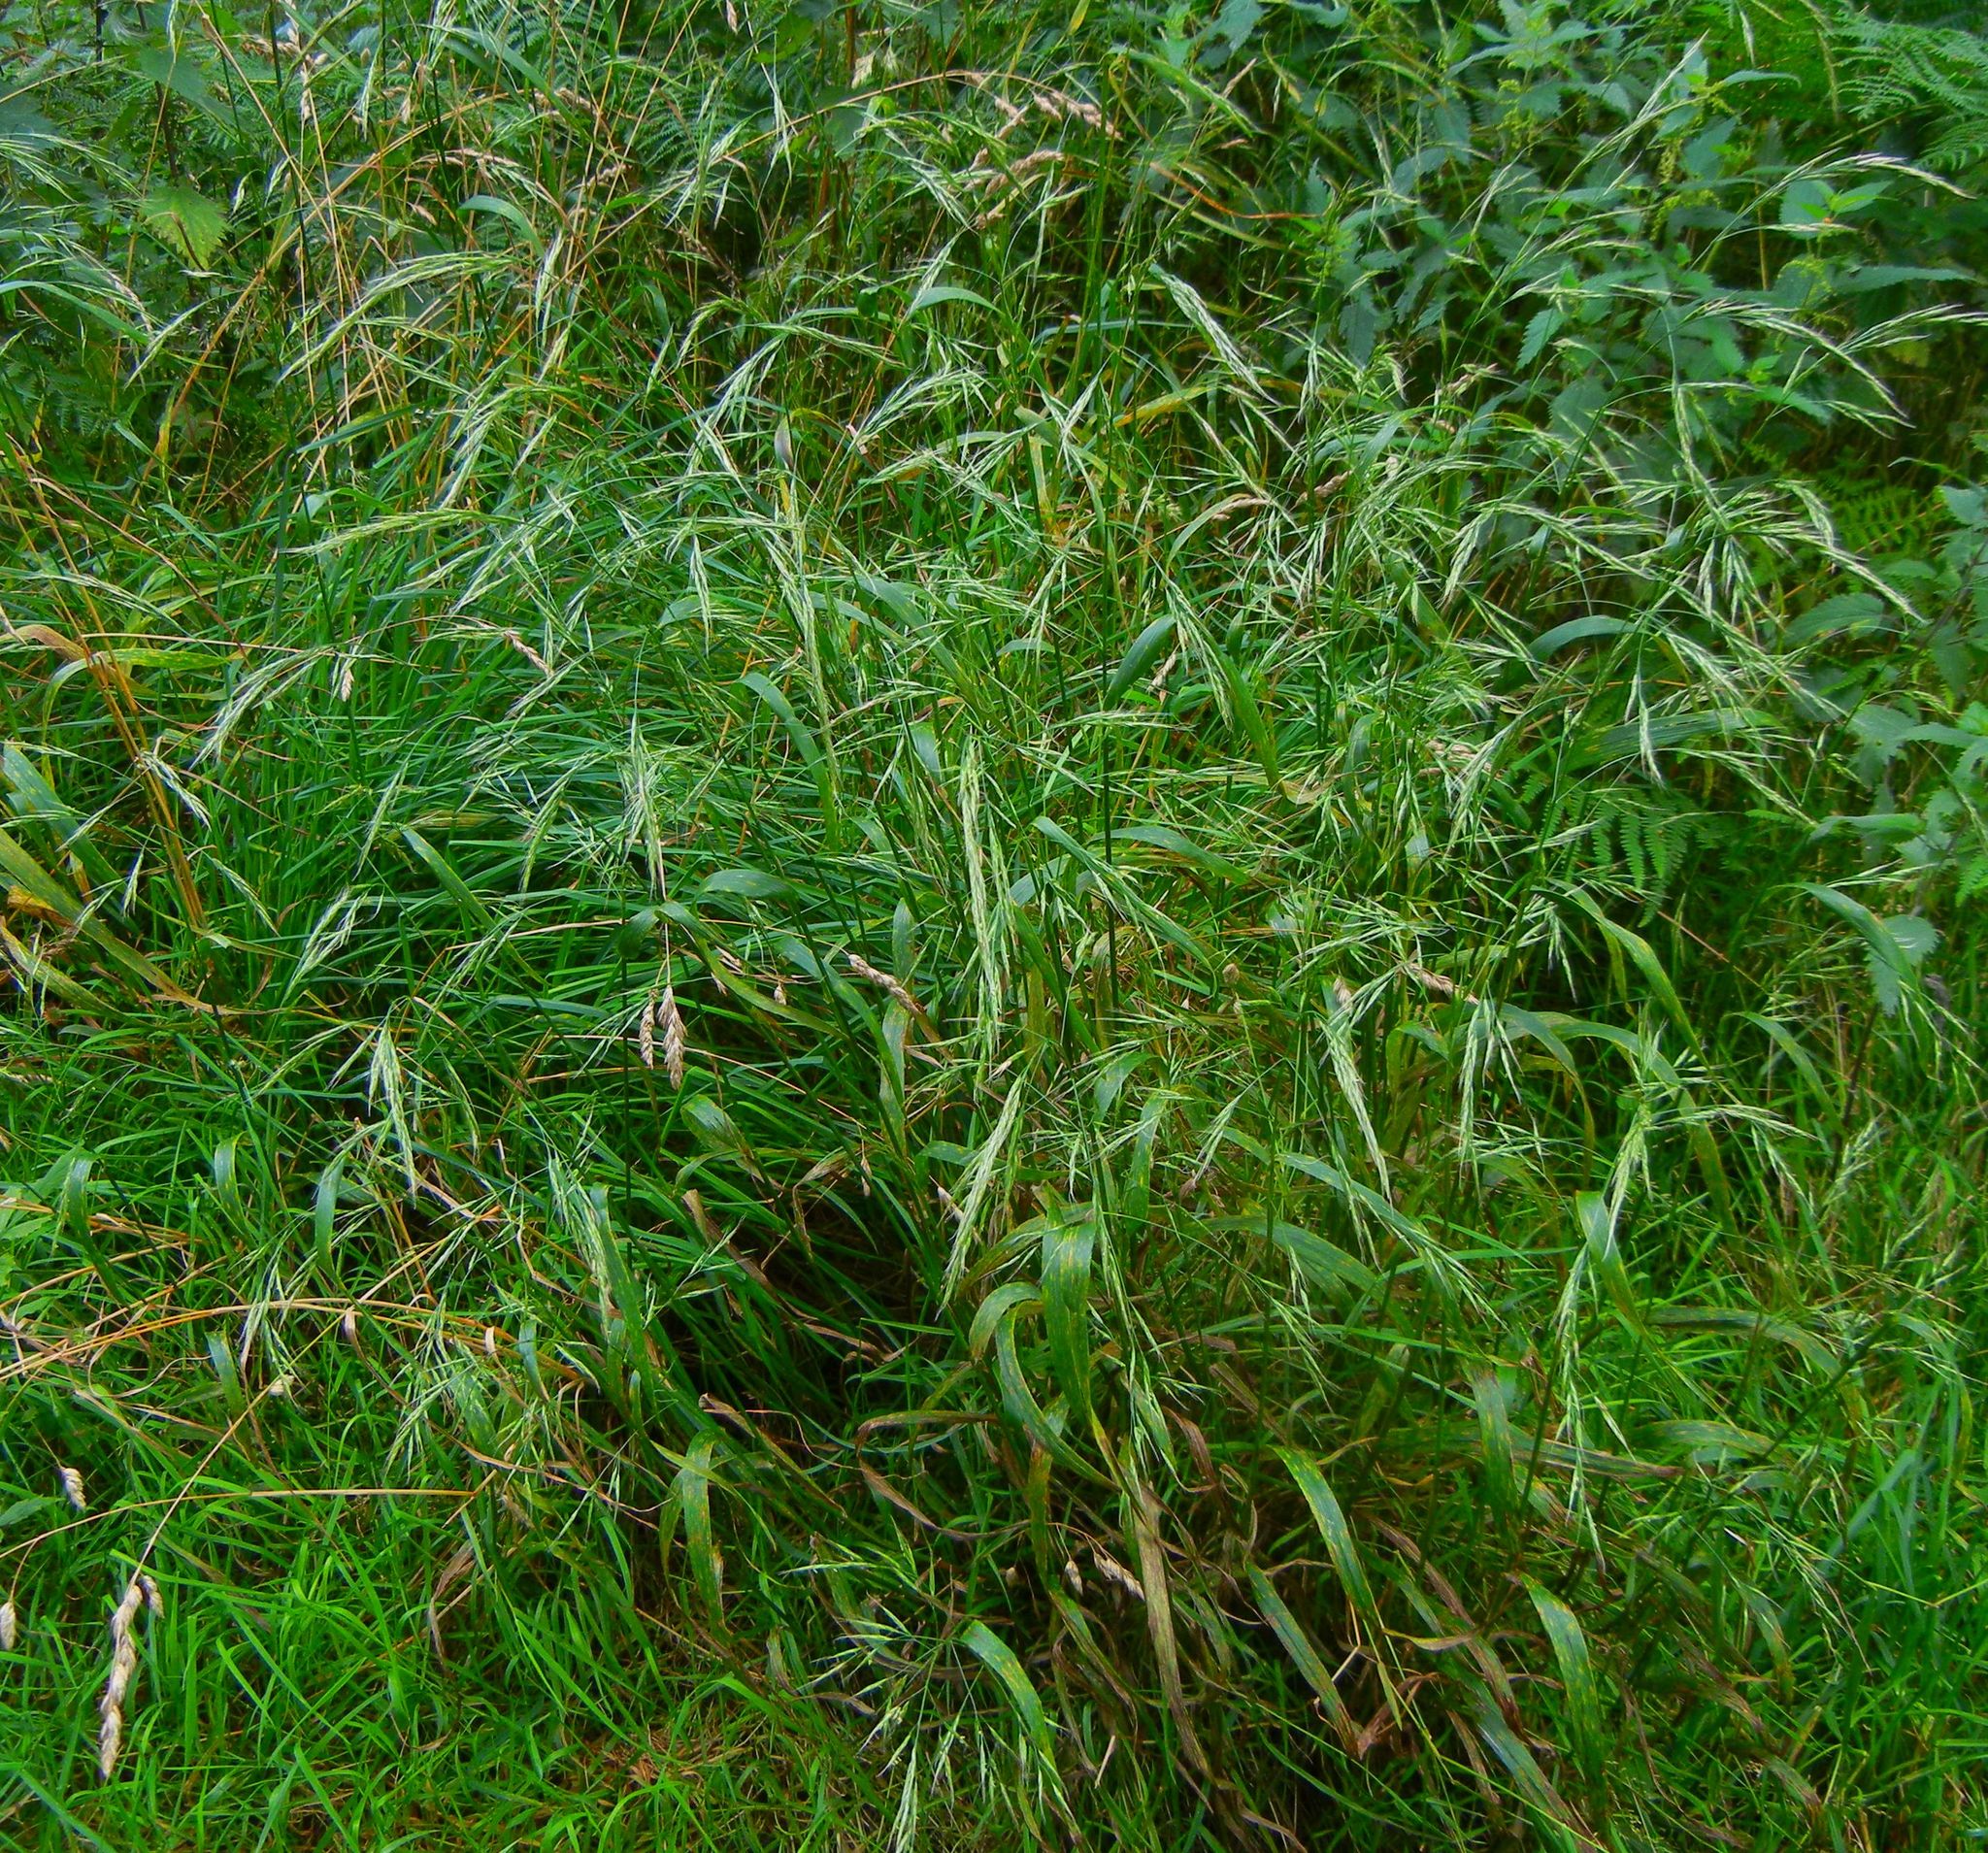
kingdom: Plantae
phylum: Tracheophyta
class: Liliopsida
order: Poales
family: Poaceae
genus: Lolium
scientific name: Lolium giganteum
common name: Giant fescue
